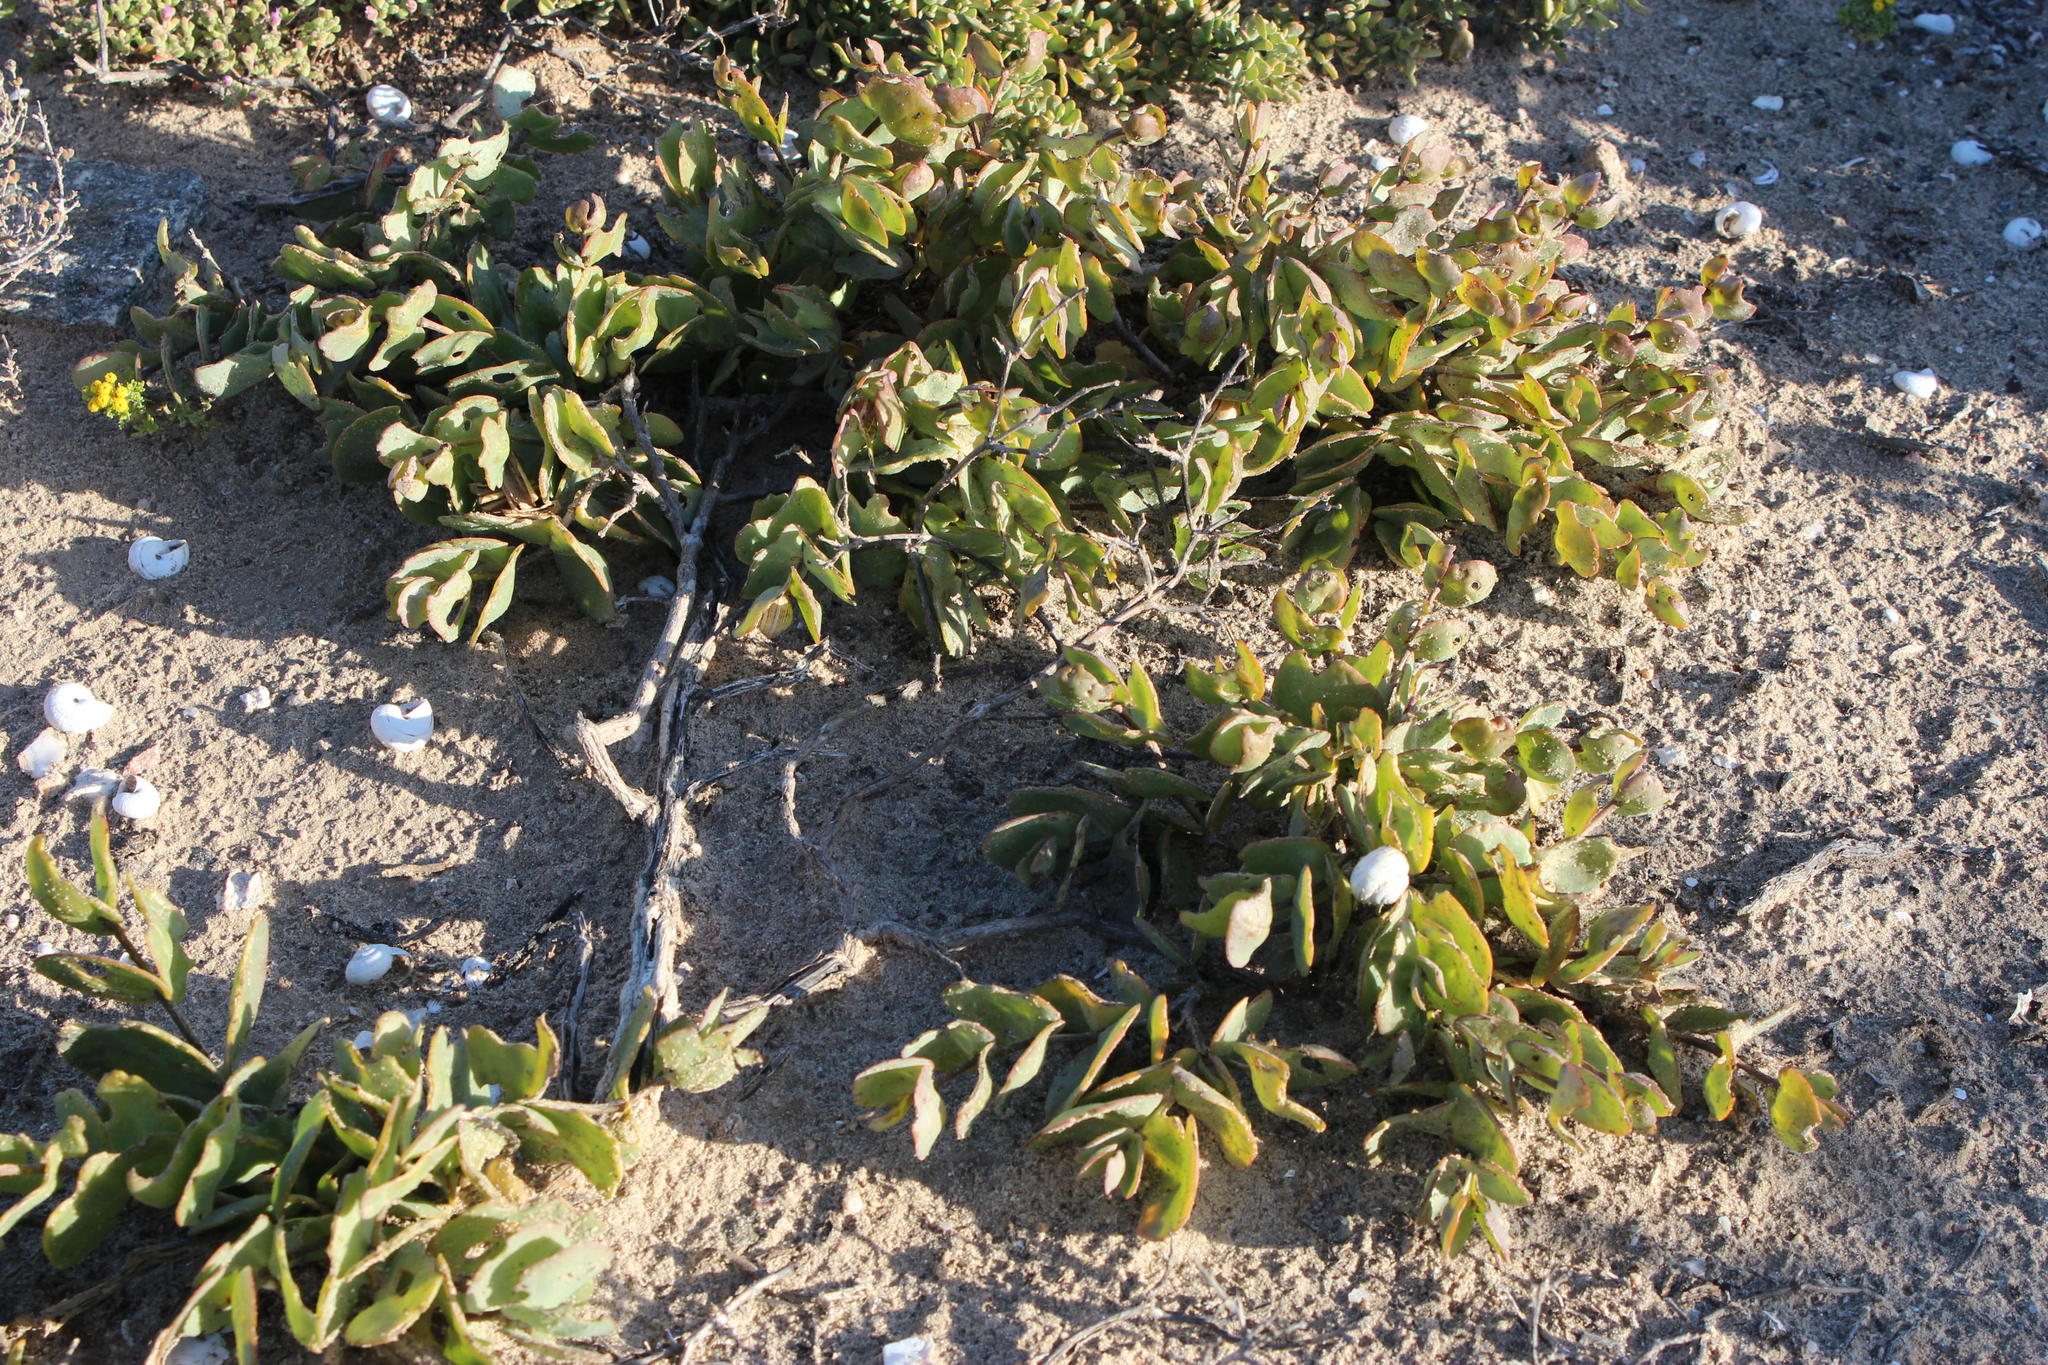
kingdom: Plantae
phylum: Tracheophyta
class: Magnoliopsida
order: Zygophyllales
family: Zygophyllaceae
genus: Roepera
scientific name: Roepera cordifolia
